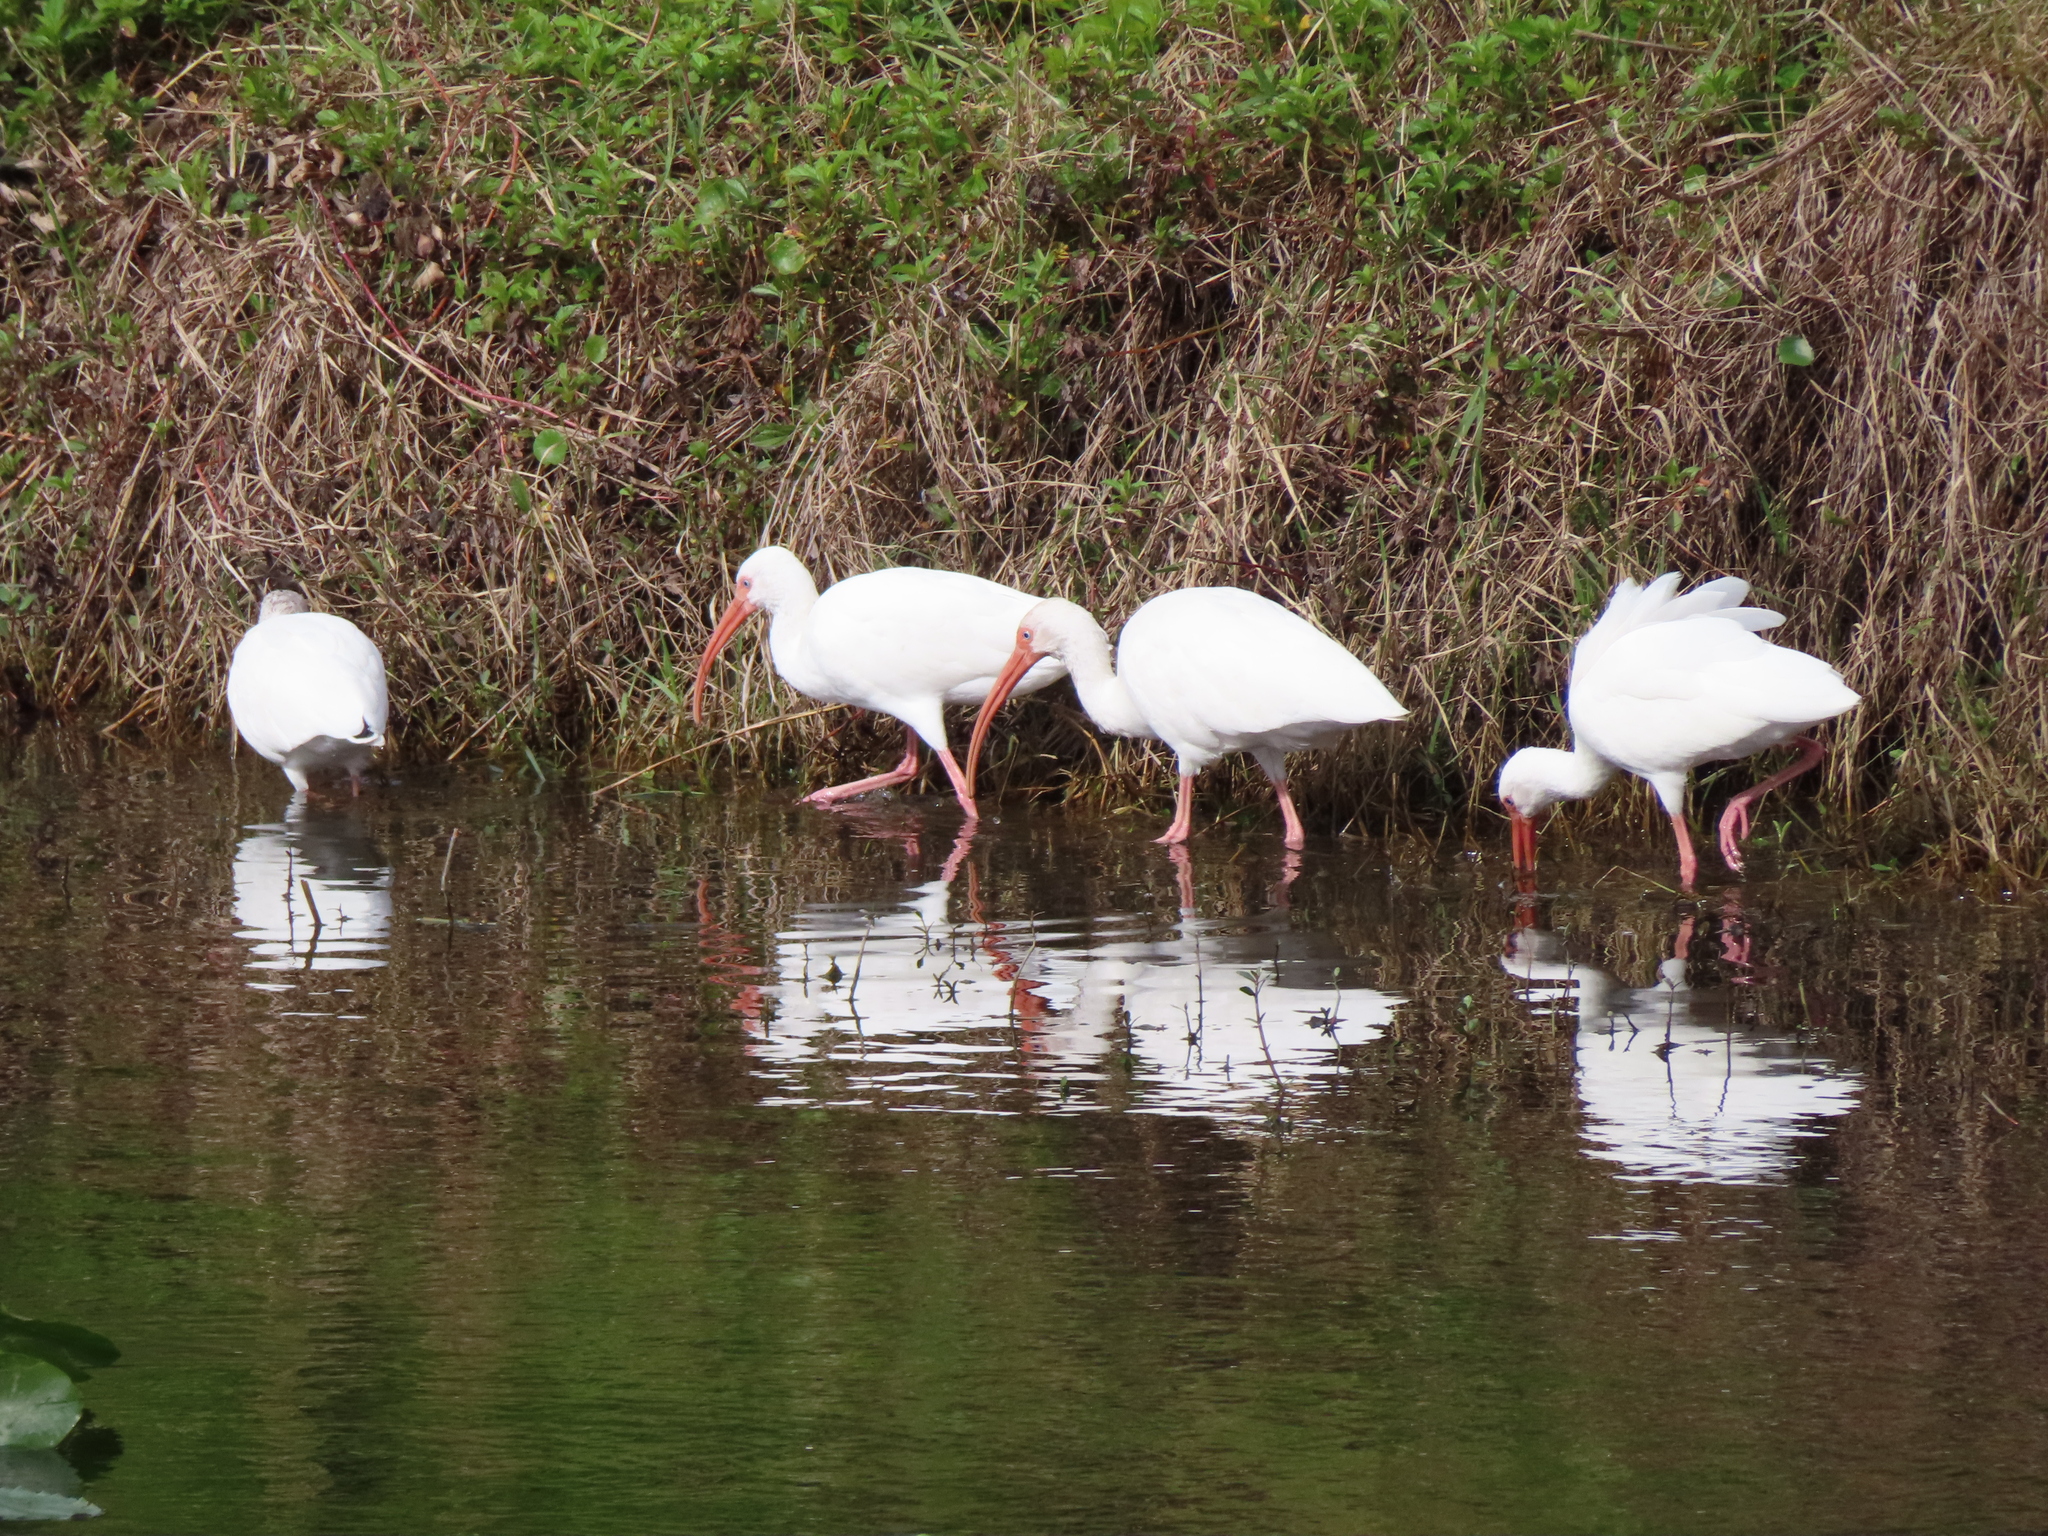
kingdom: Animalia
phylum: Chordata
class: Aves
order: Pelecaniformes
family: Threskiornithidae
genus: Eudocimus
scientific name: Eudocimus albus
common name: White ibis
